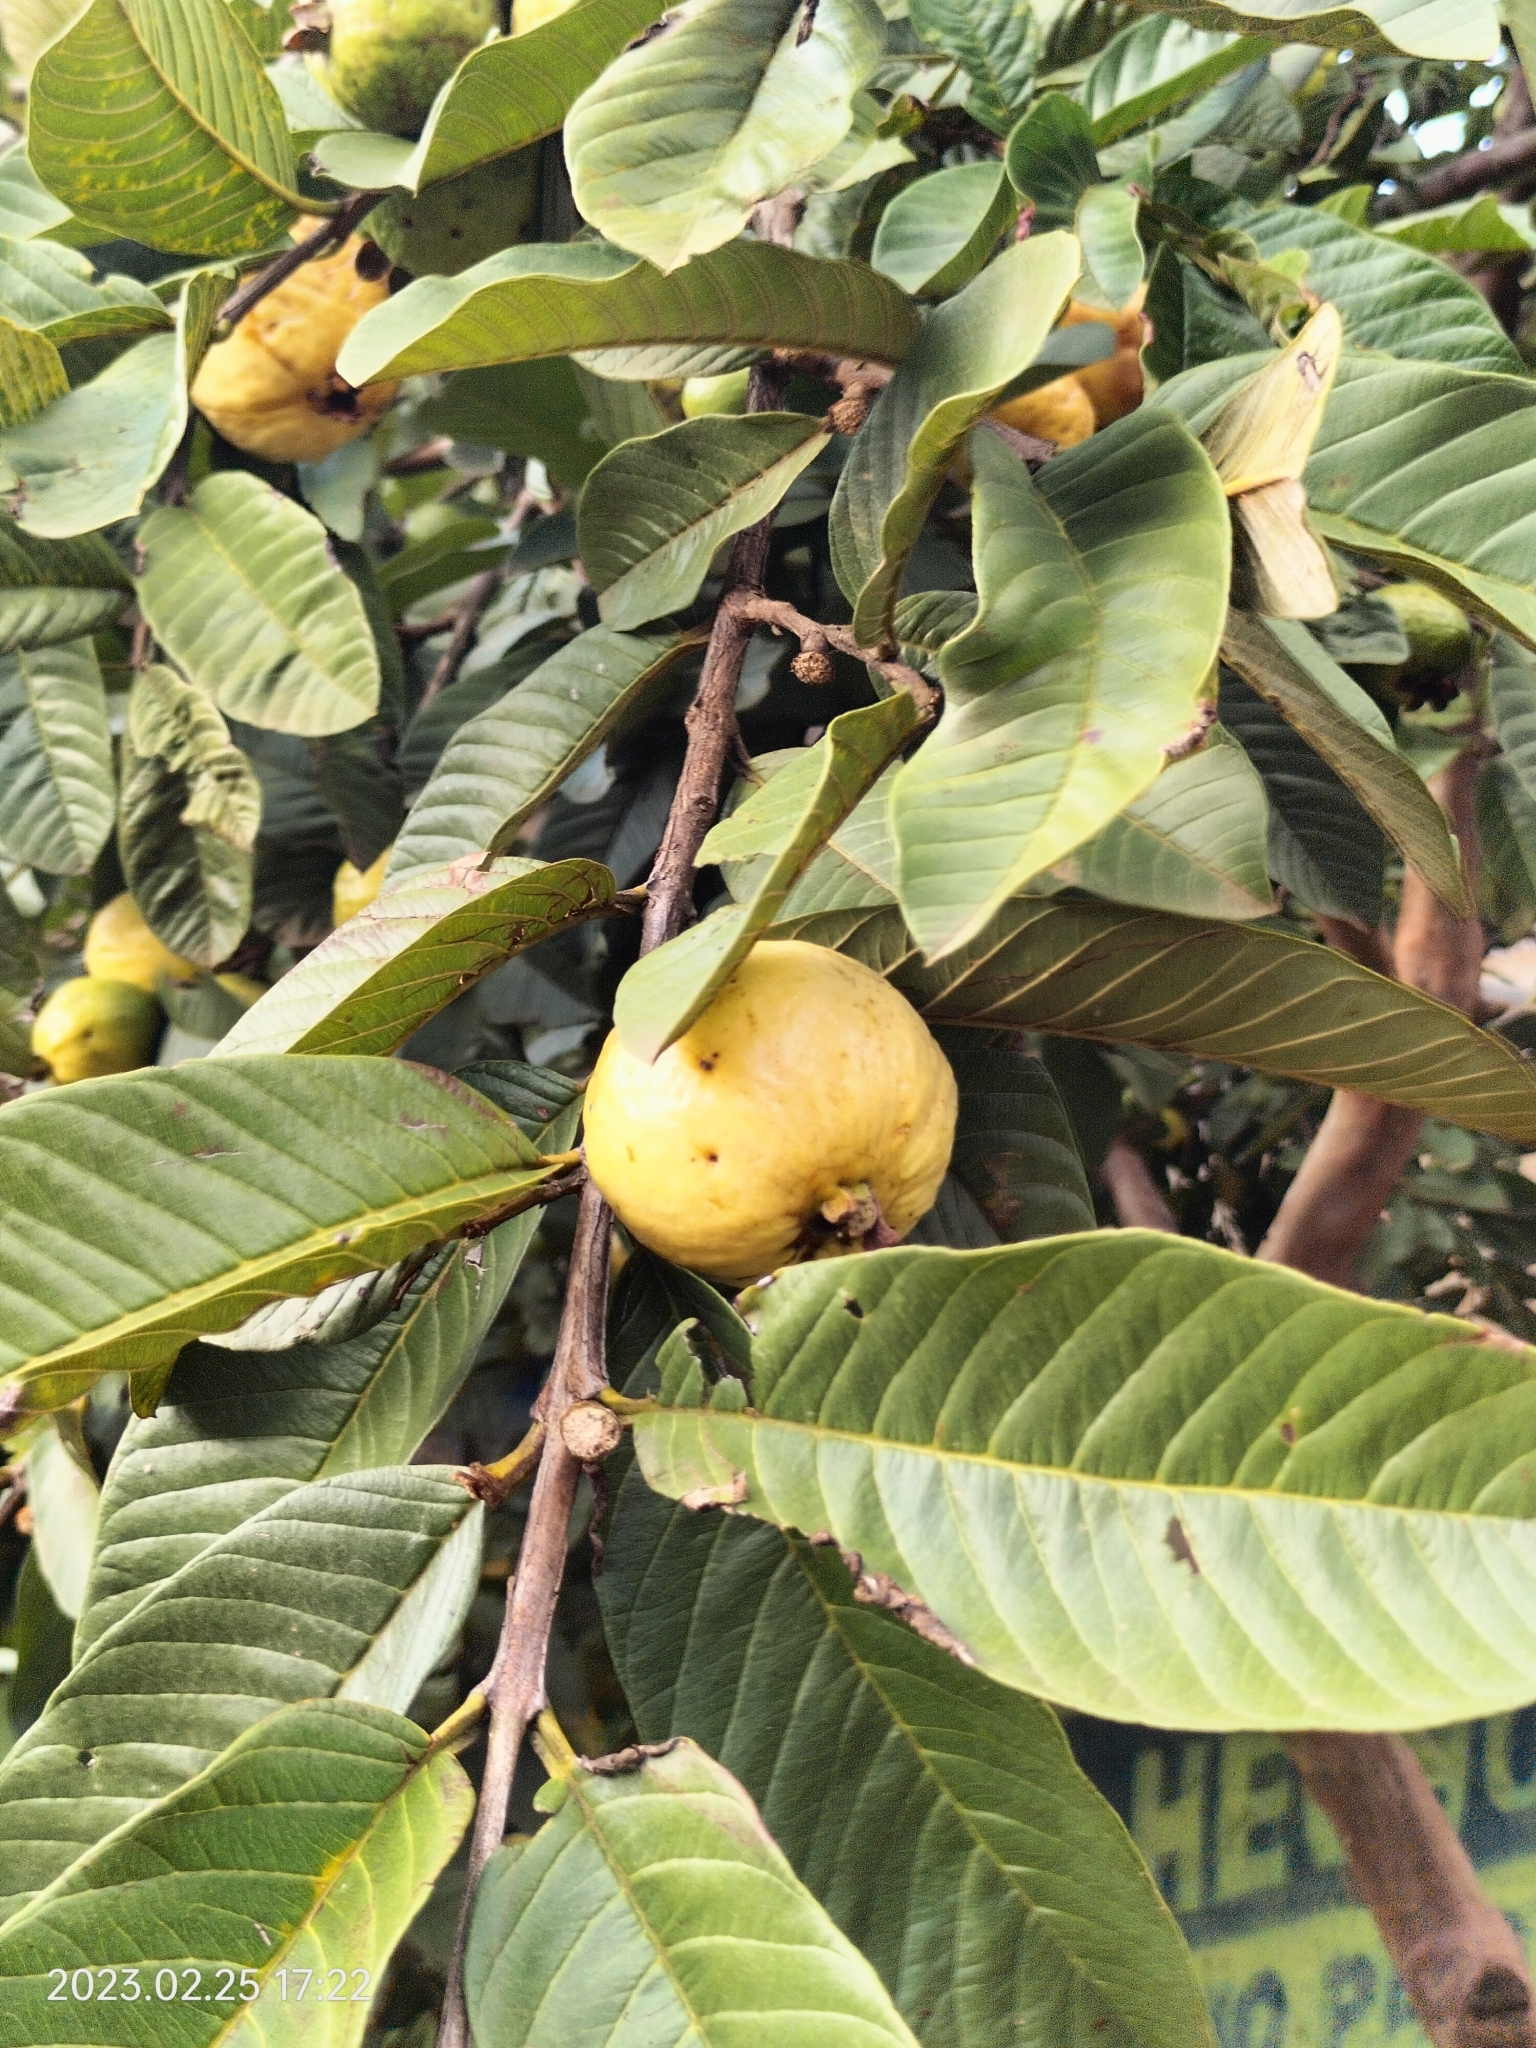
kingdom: Plantae
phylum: Tracheophyta
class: Magnoliopsida
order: Myrtales
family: Myrtaceae
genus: Psidium
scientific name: Psidium guajava
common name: Guava
